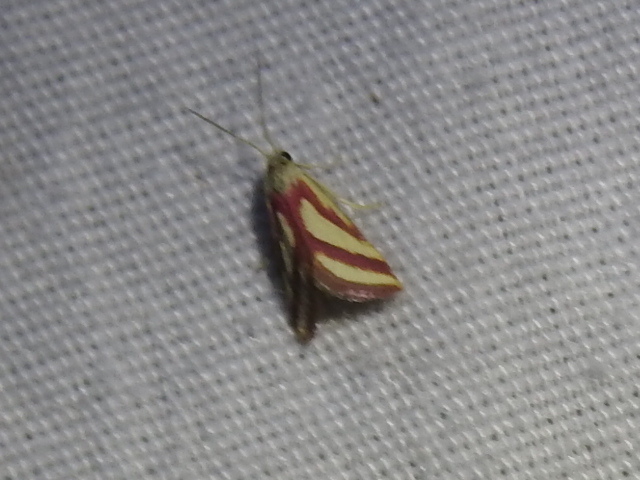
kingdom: Animalia
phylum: Arthropoda
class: Insecta
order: Lepidoptera
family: Crambidae
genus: Microtheoris
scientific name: Microtheoris vibicalis
